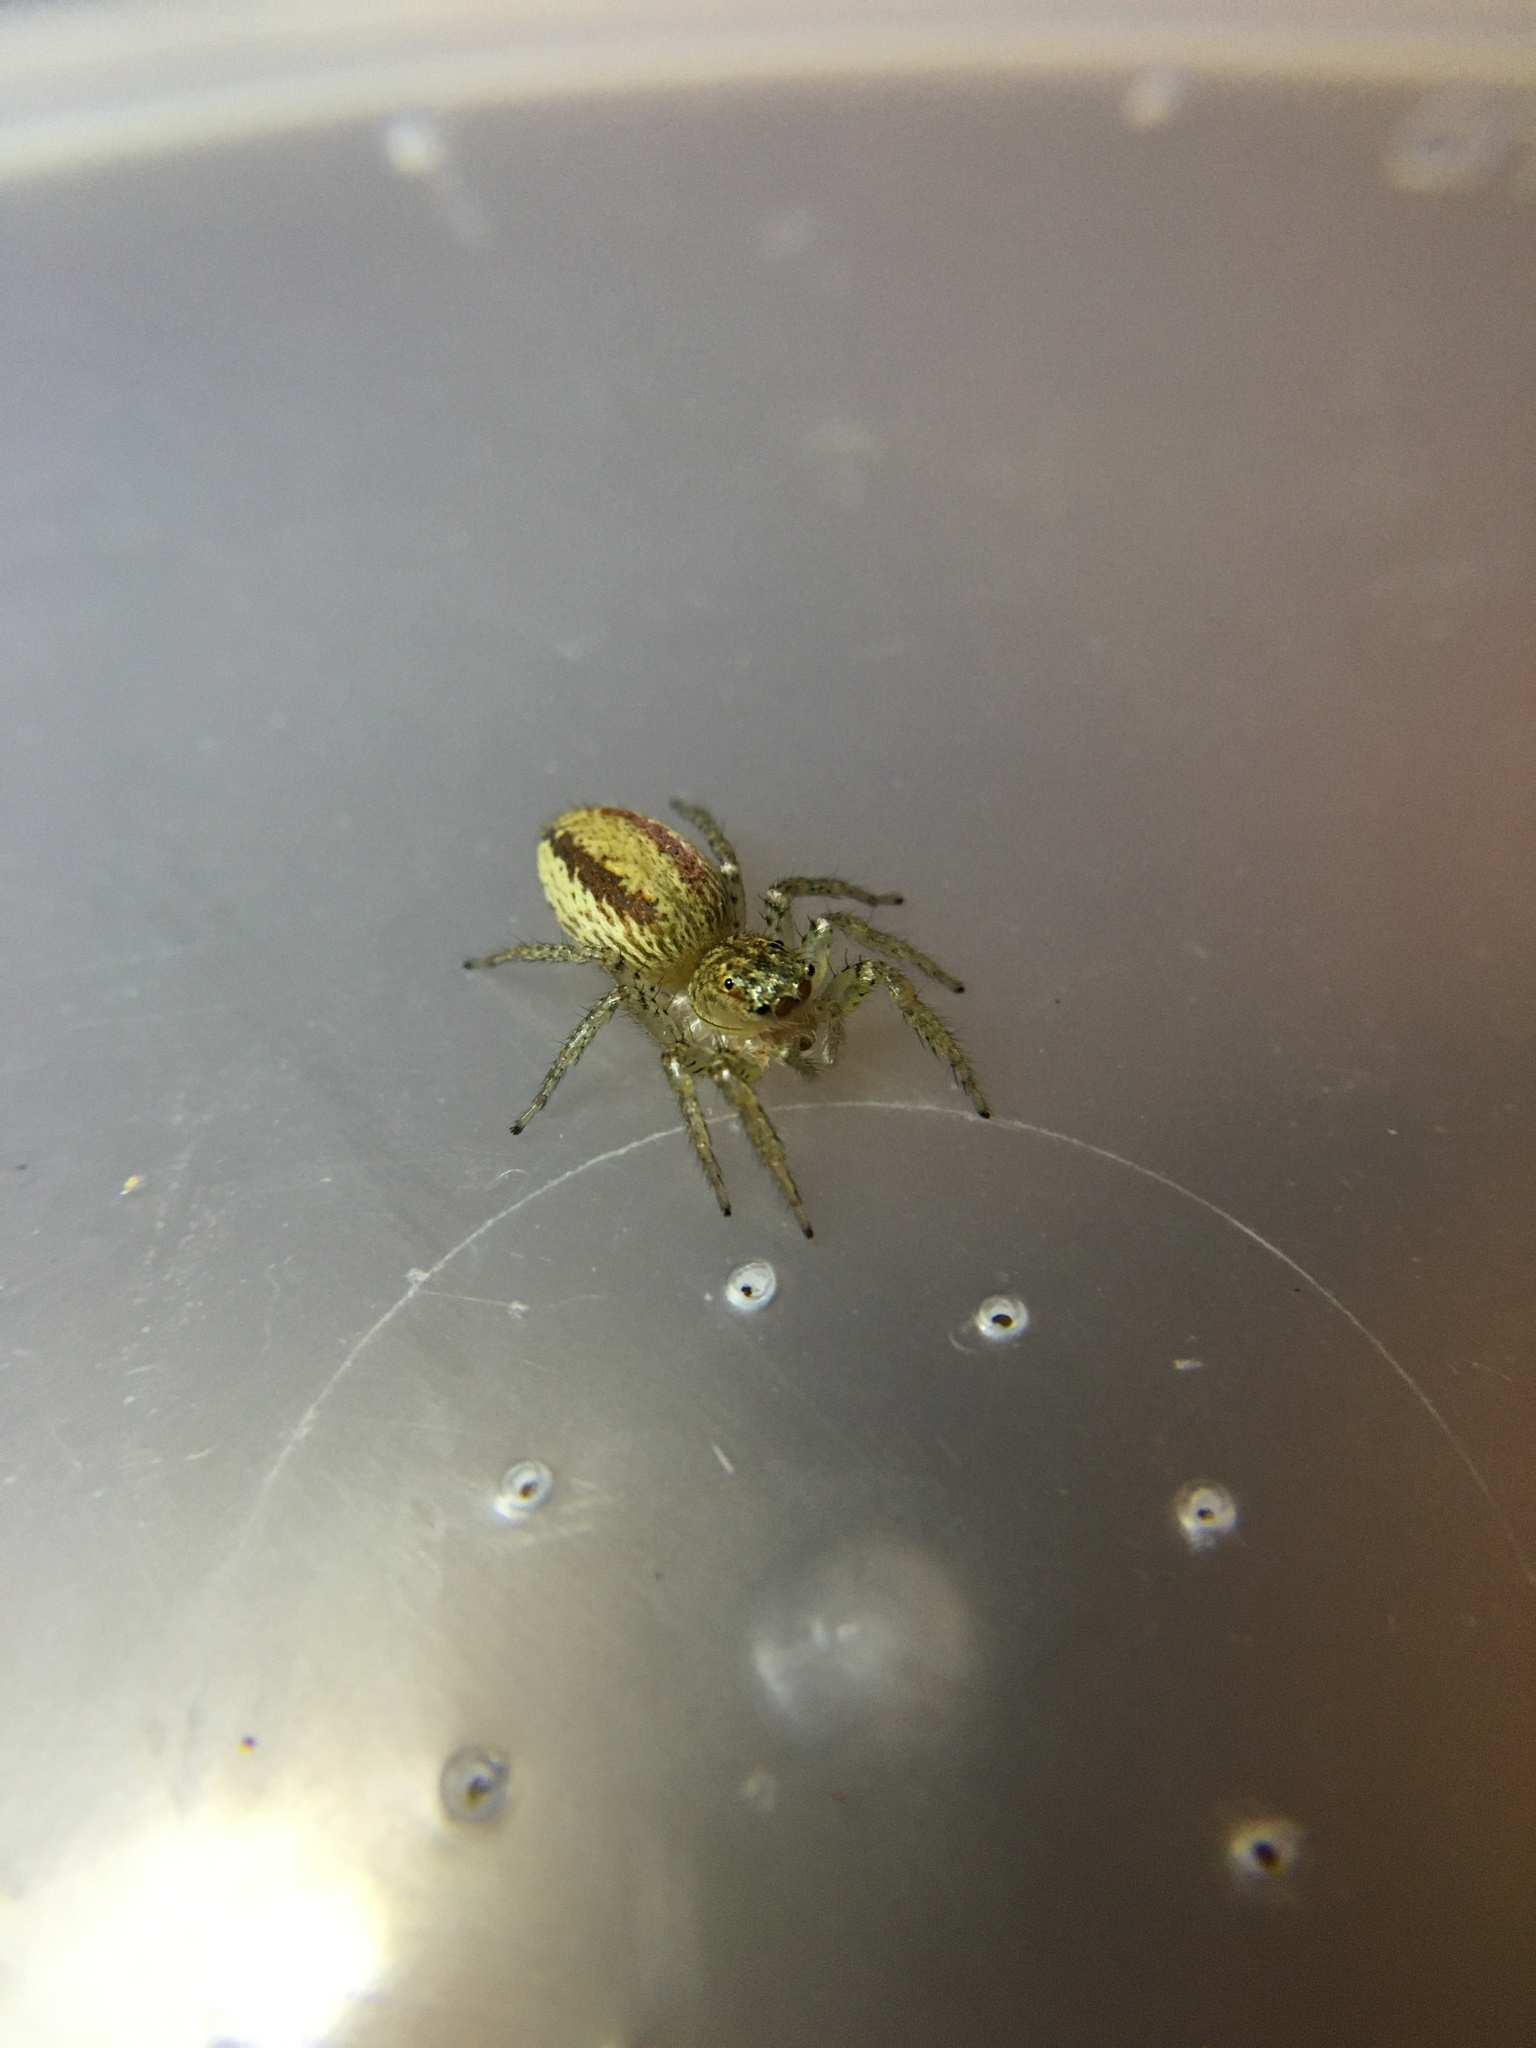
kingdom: Animalia
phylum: Arthropoda
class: Arachnida
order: Araneae
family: Salticidae
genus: Maevia
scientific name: Maevia inclemens
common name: Dimorphic jumper
